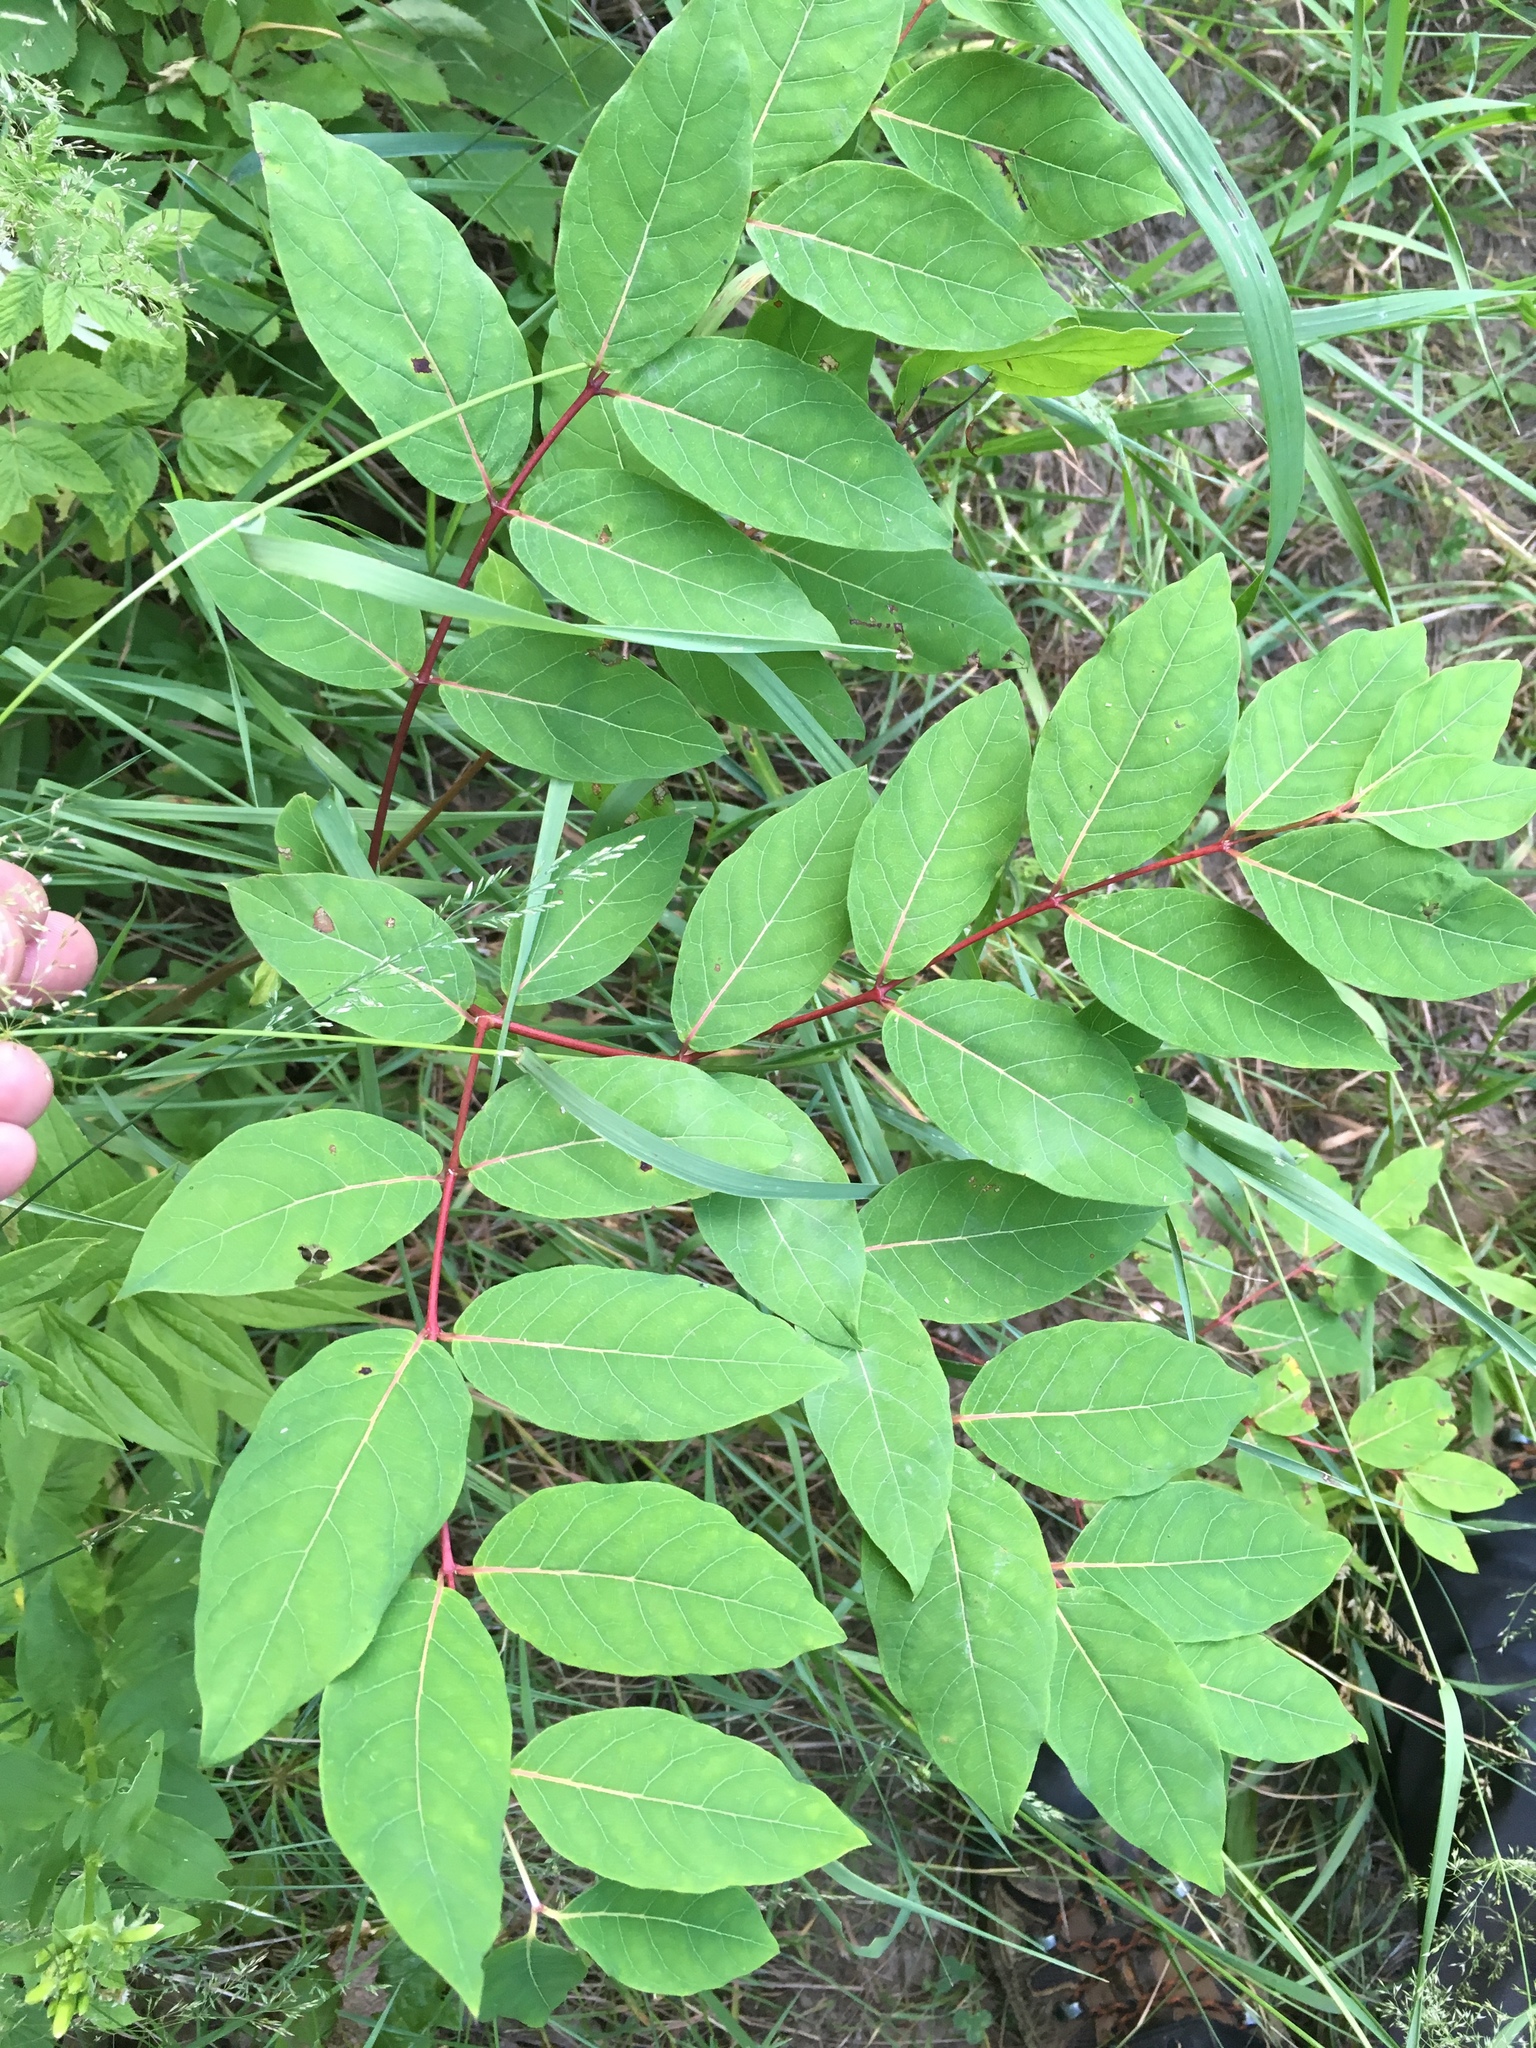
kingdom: Plantae
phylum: Tracheophyta
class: Magnoliopsida
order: Gentianales
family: Apocynaceae
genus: Apocynum
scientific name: Apocynum androsaemifolium
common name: Spreading dogbane
